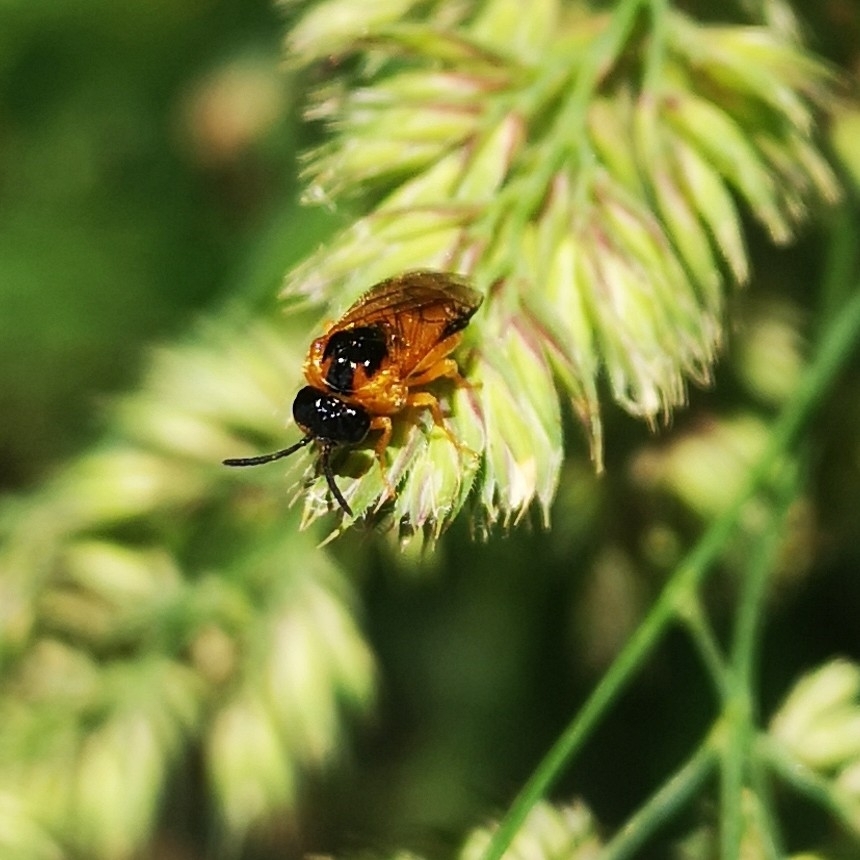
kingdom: Animalia
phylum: Arthropoda
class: Insecta
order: Hymenoptera
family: Tenthredinidae
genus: Selandria
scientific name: Selandria serva
